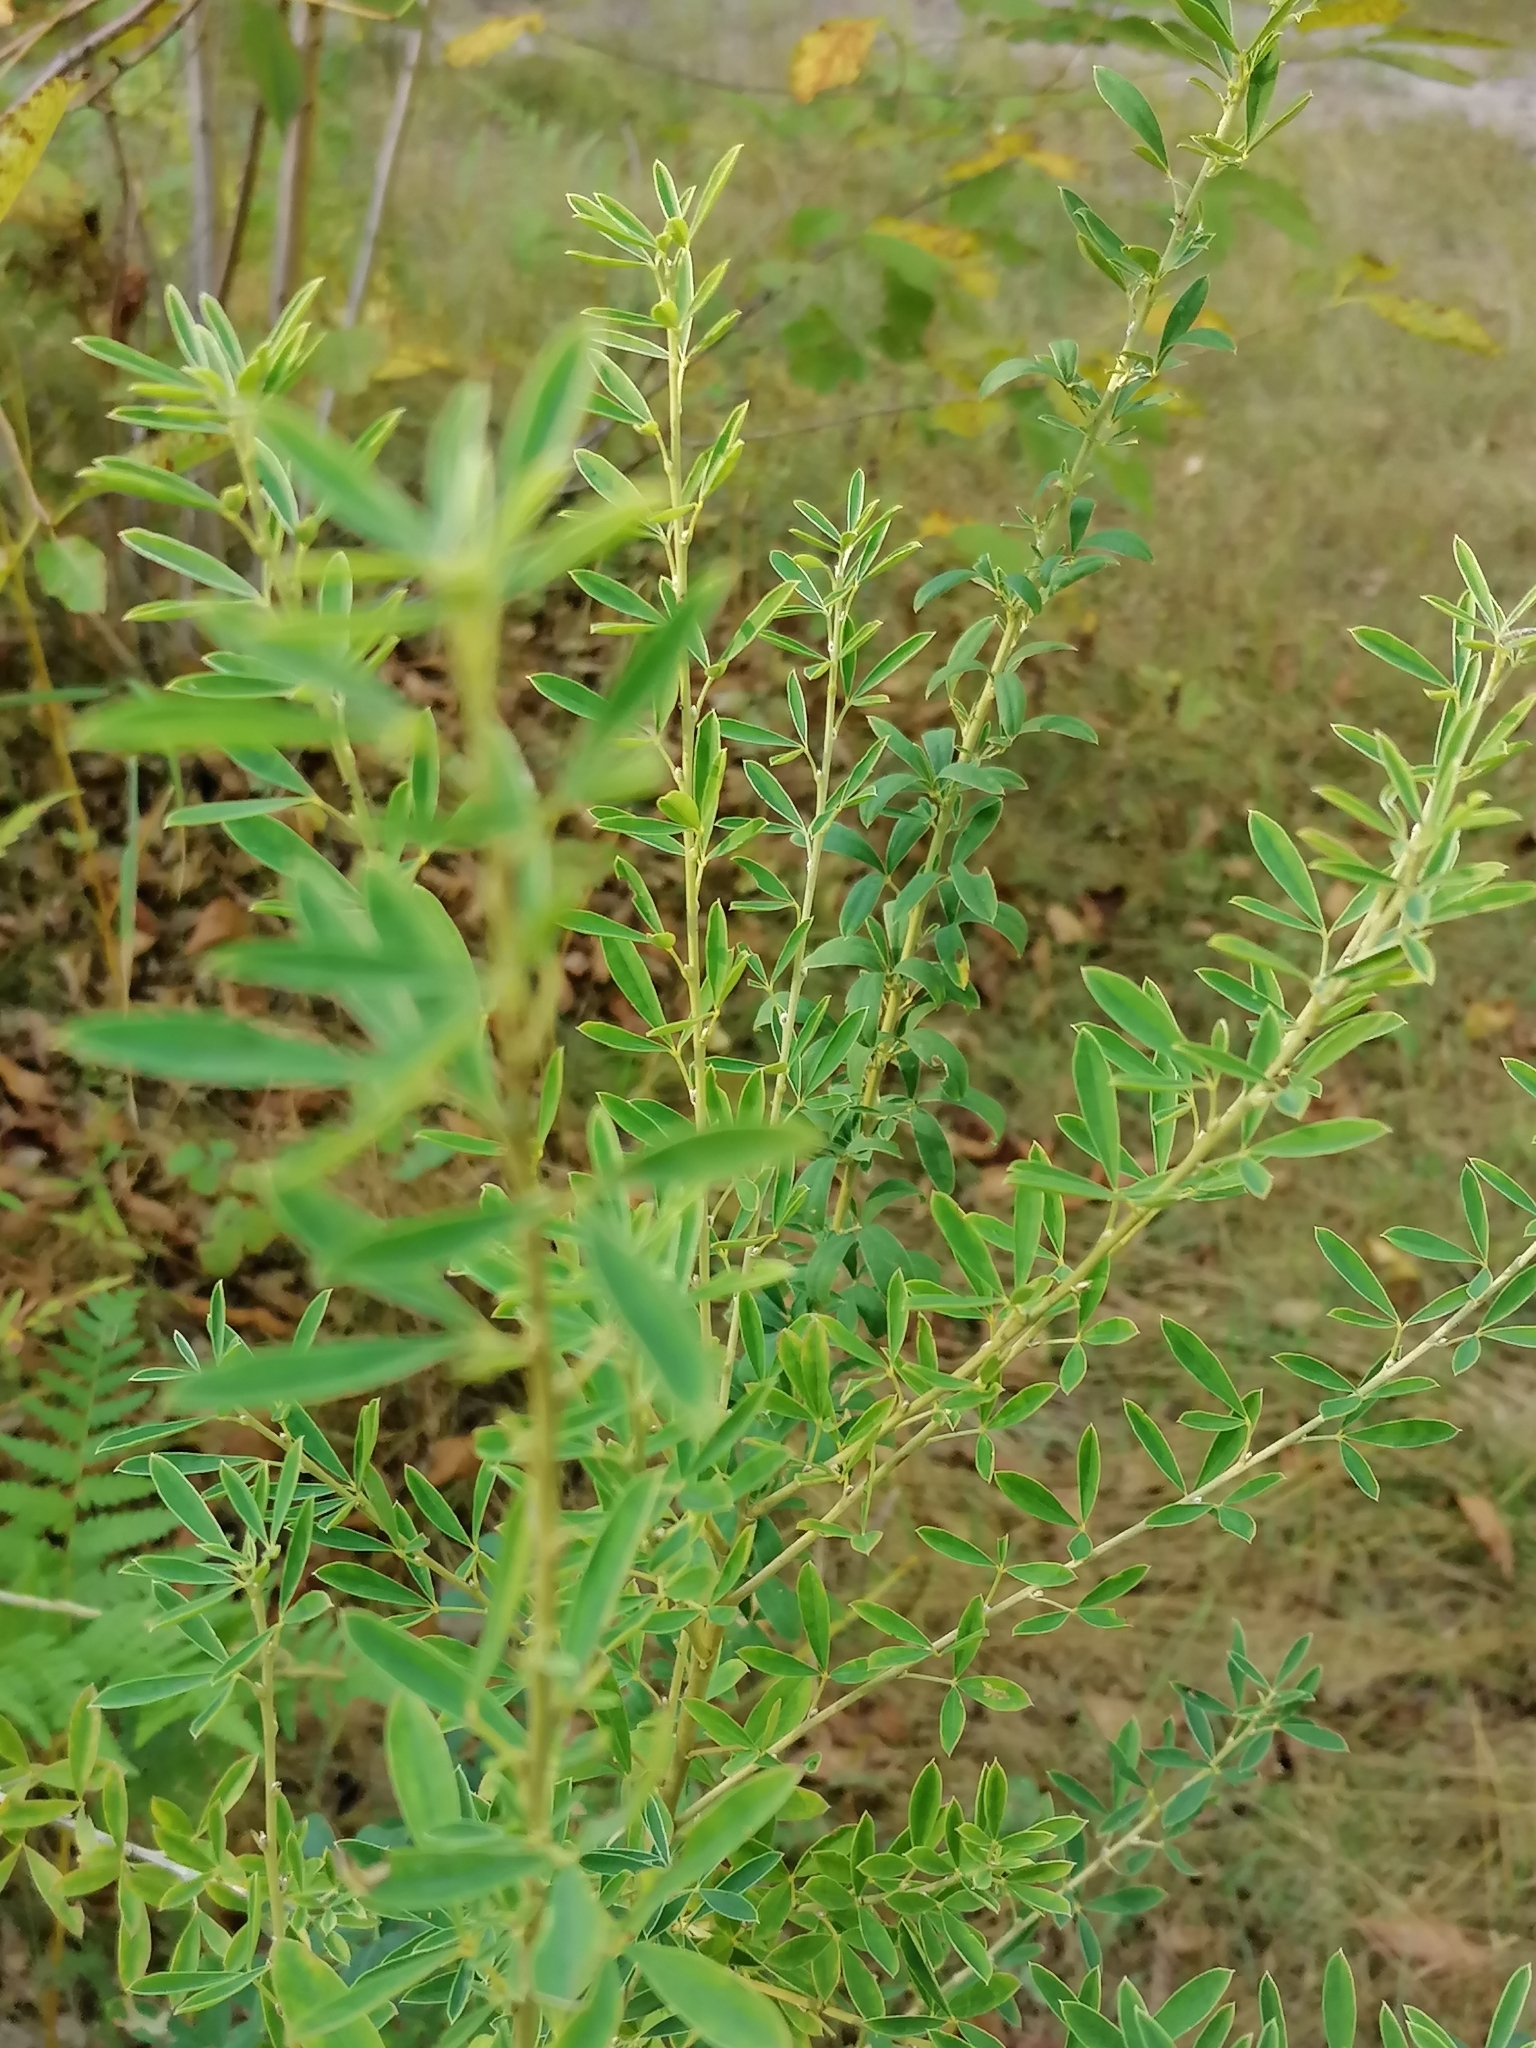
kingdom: Plantae
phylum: Tracheophyta
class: Magnoliopsida
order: Fabales
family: Fabaceae
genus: Chamaecytisus
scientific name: Chamaecytisus ruthenicus
